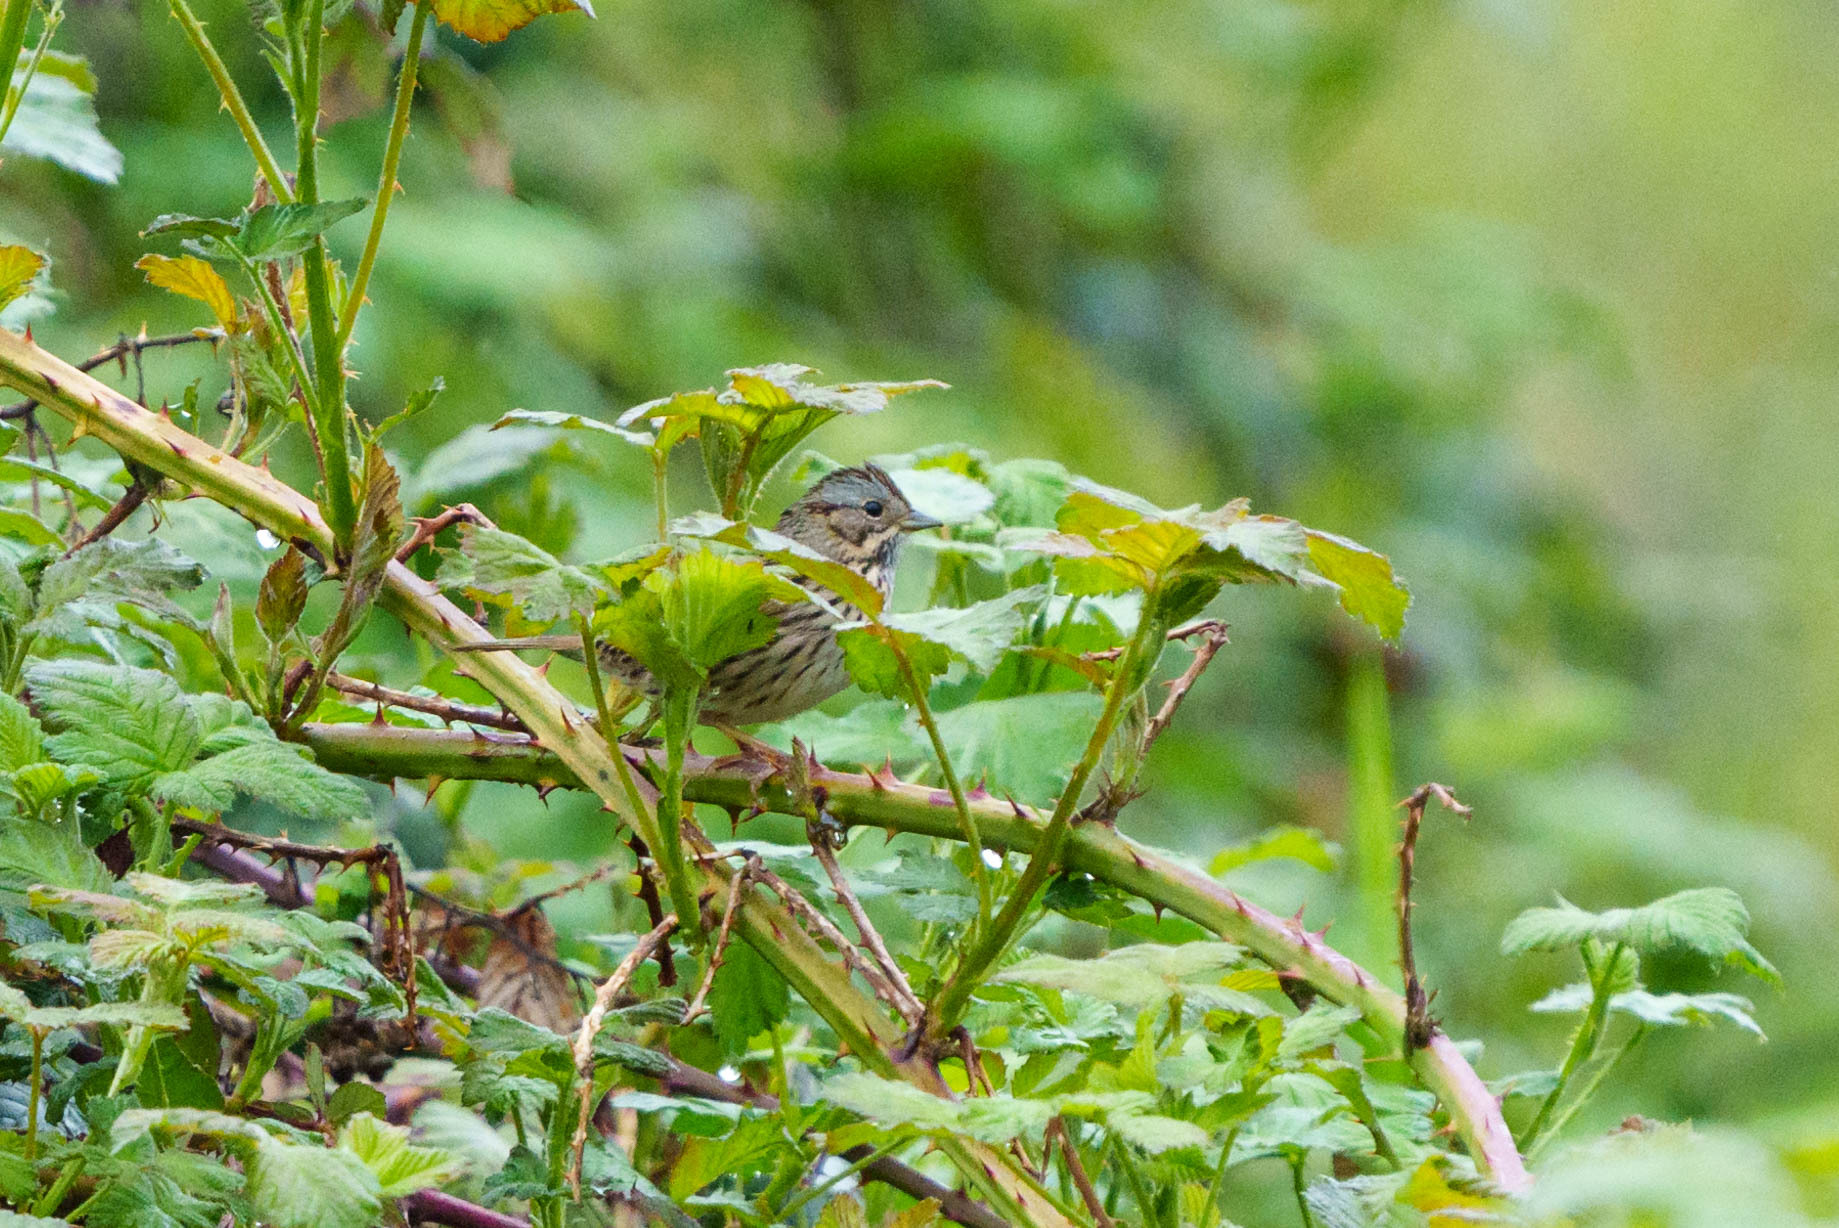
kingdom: Animalia
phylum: Chordata
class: Aves
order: Passeriformes
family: Passerellidae
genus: Melospiza
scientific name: Melospiza lincolnii
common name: Lincoln's sparrow
